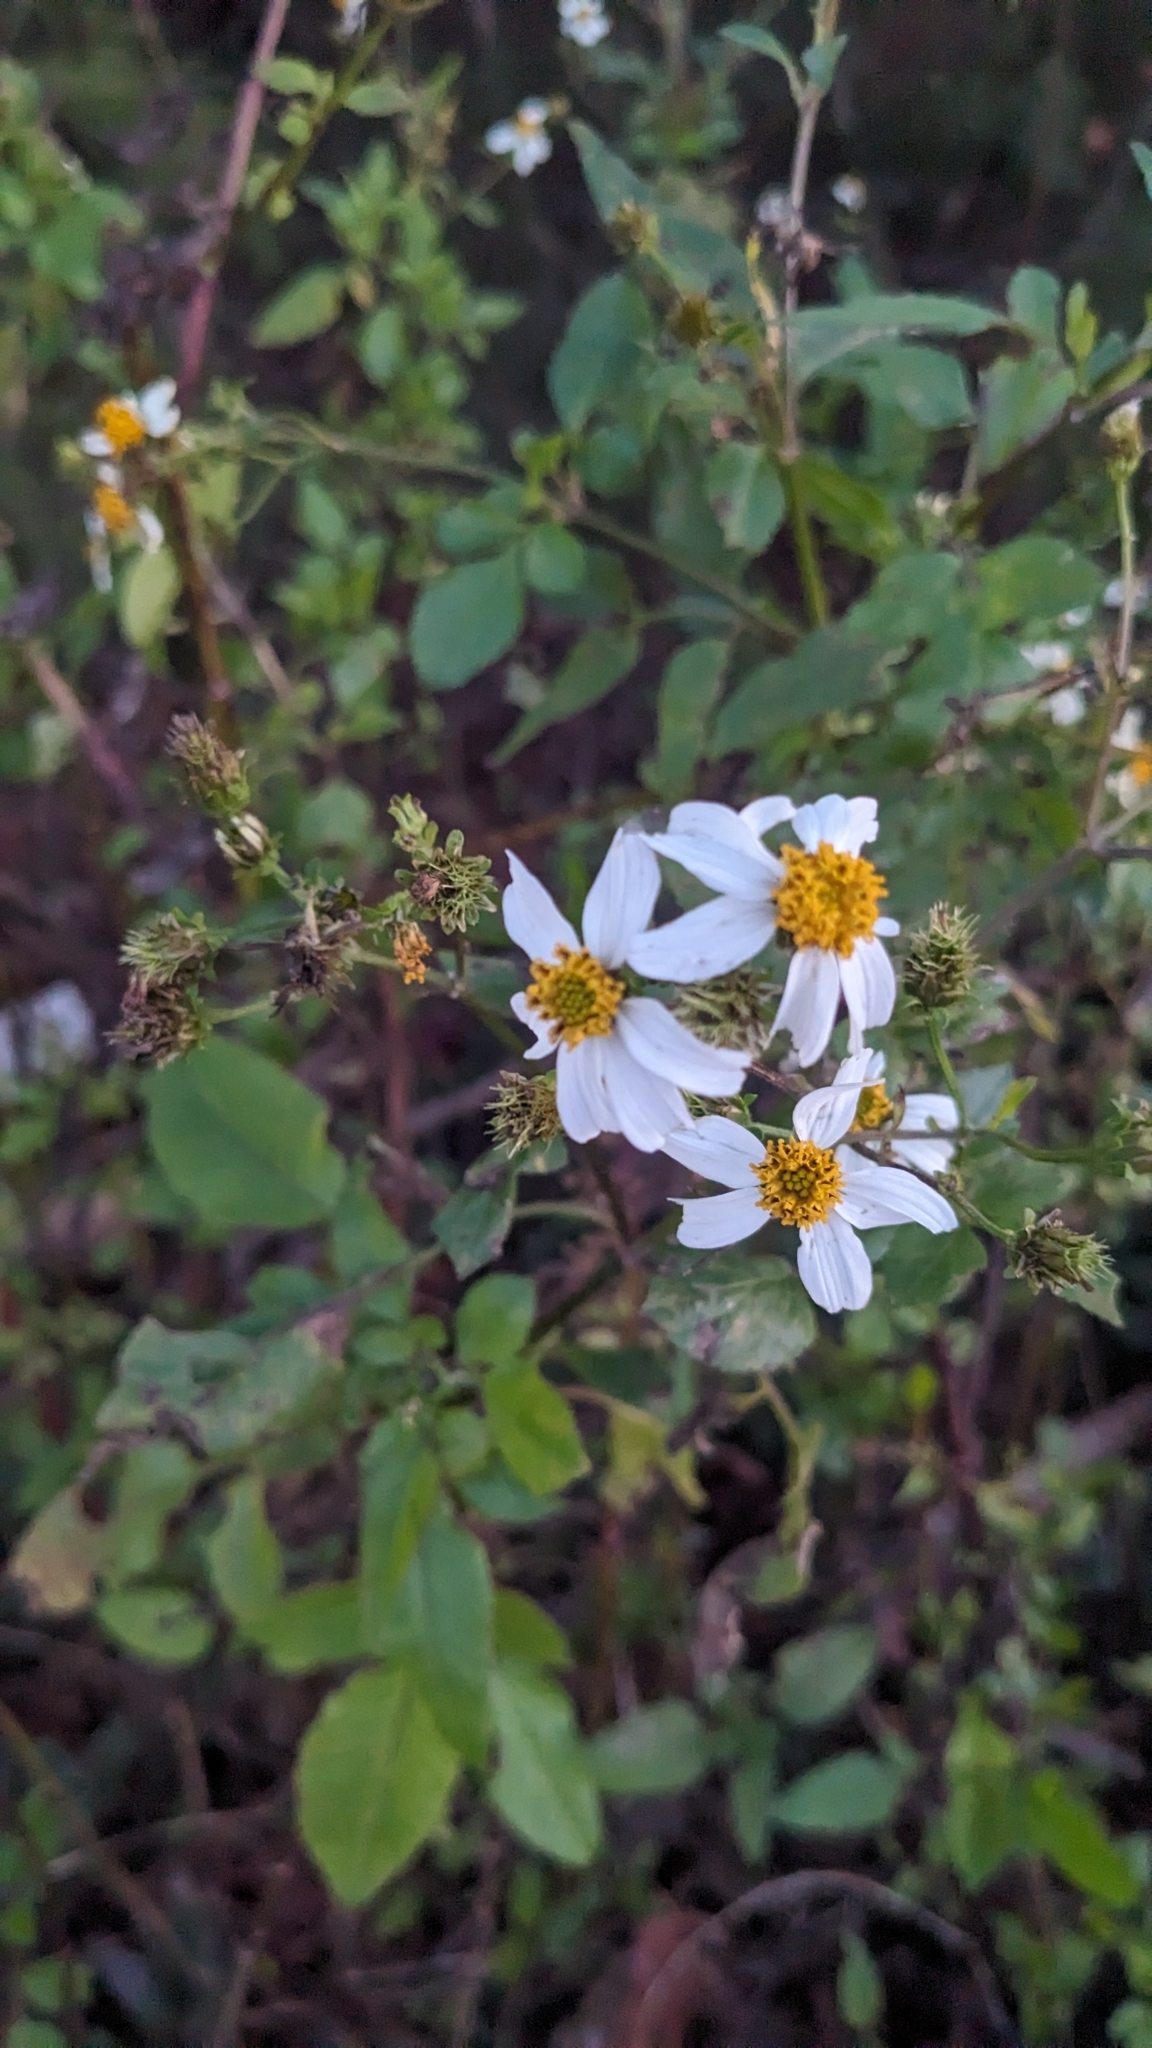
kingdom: Plantae
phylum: Tracheophyta
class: Magnoliopsida
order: Asterales
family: Asteraceae
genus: Bidens
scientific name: Bidens alba
